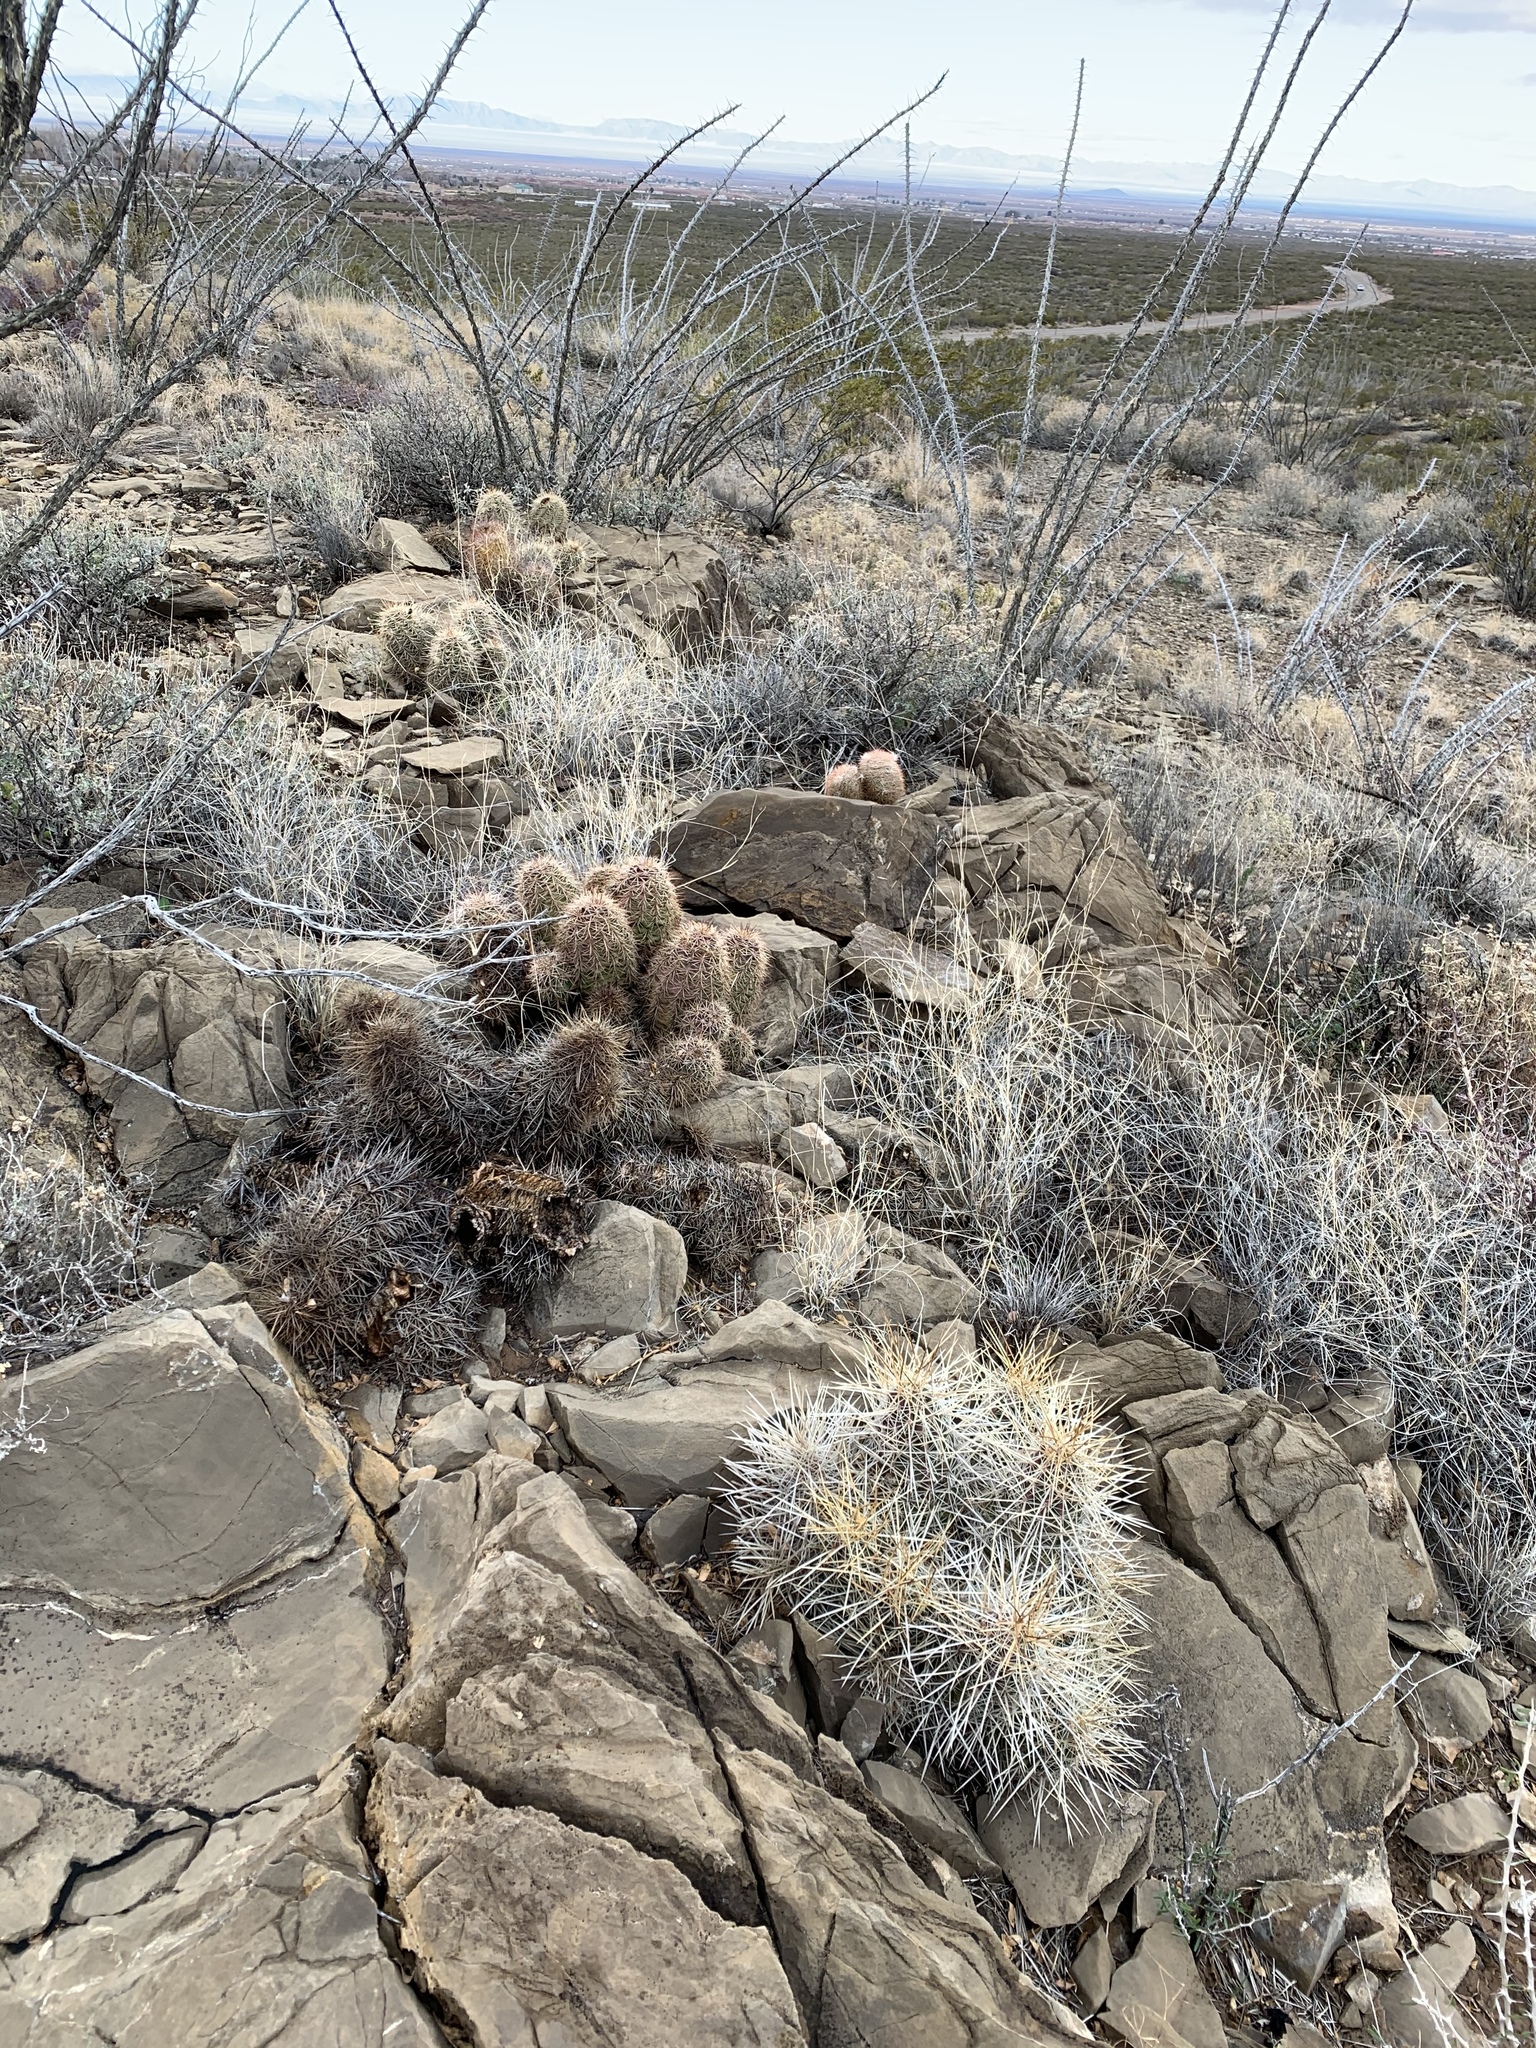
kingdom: Plantae
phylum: Tracheophyta
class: Magnoliopsida
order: Caryophyllales
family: Cactaceae
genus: Echinocereus
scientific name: Echinocereus stramineus
